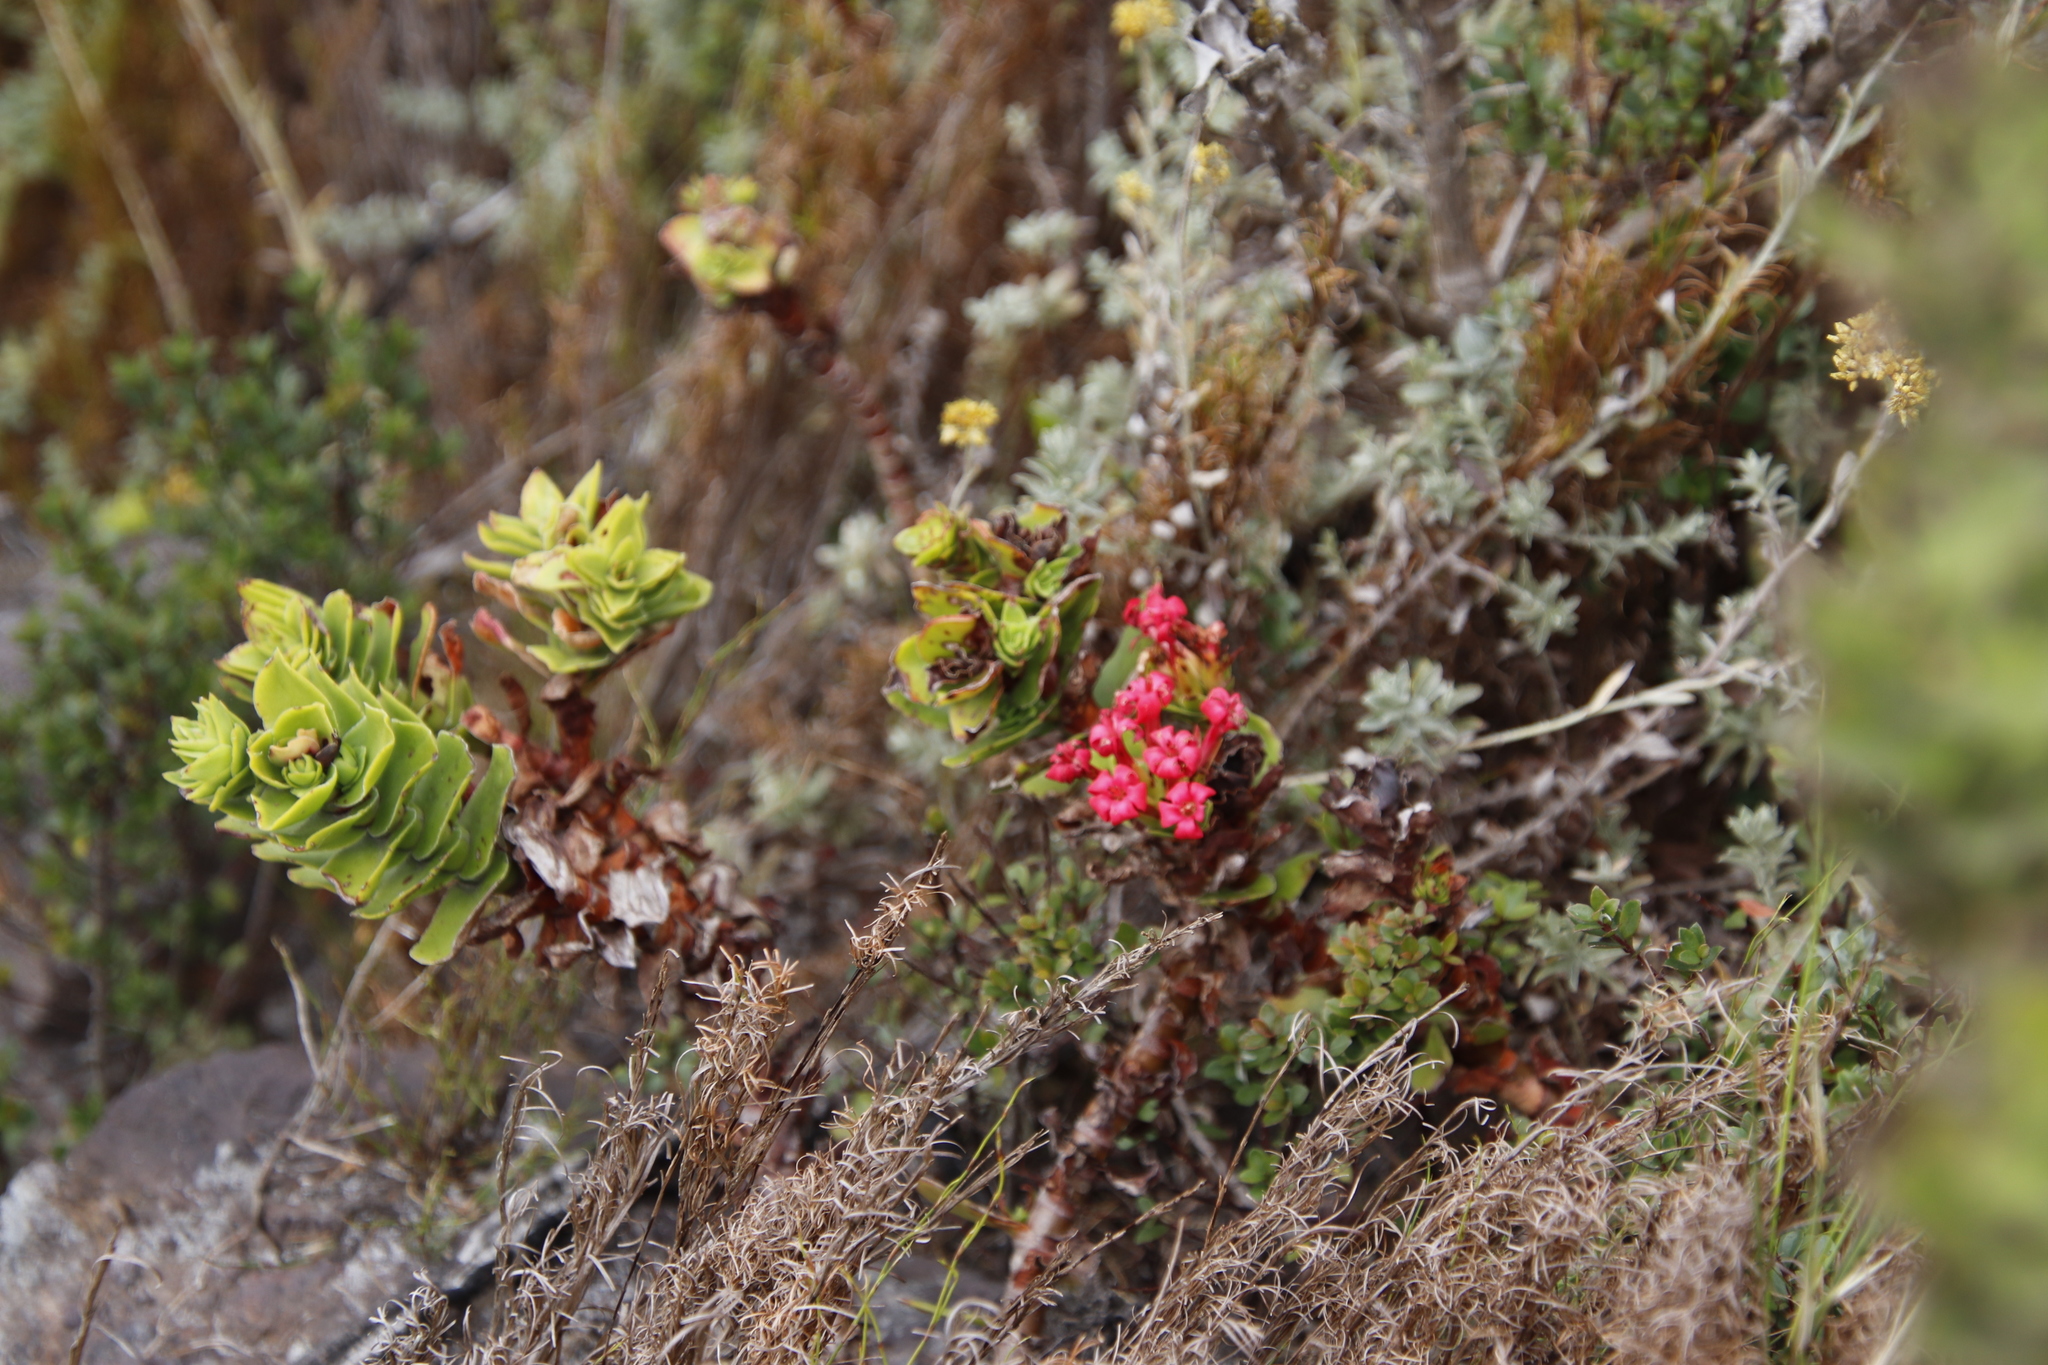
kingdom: Plantae
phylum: Tracheophyta
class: Magnoliopsida
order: Saxifragales
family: Crassulaceae
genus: Crassula
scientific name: Crassula coccinea
